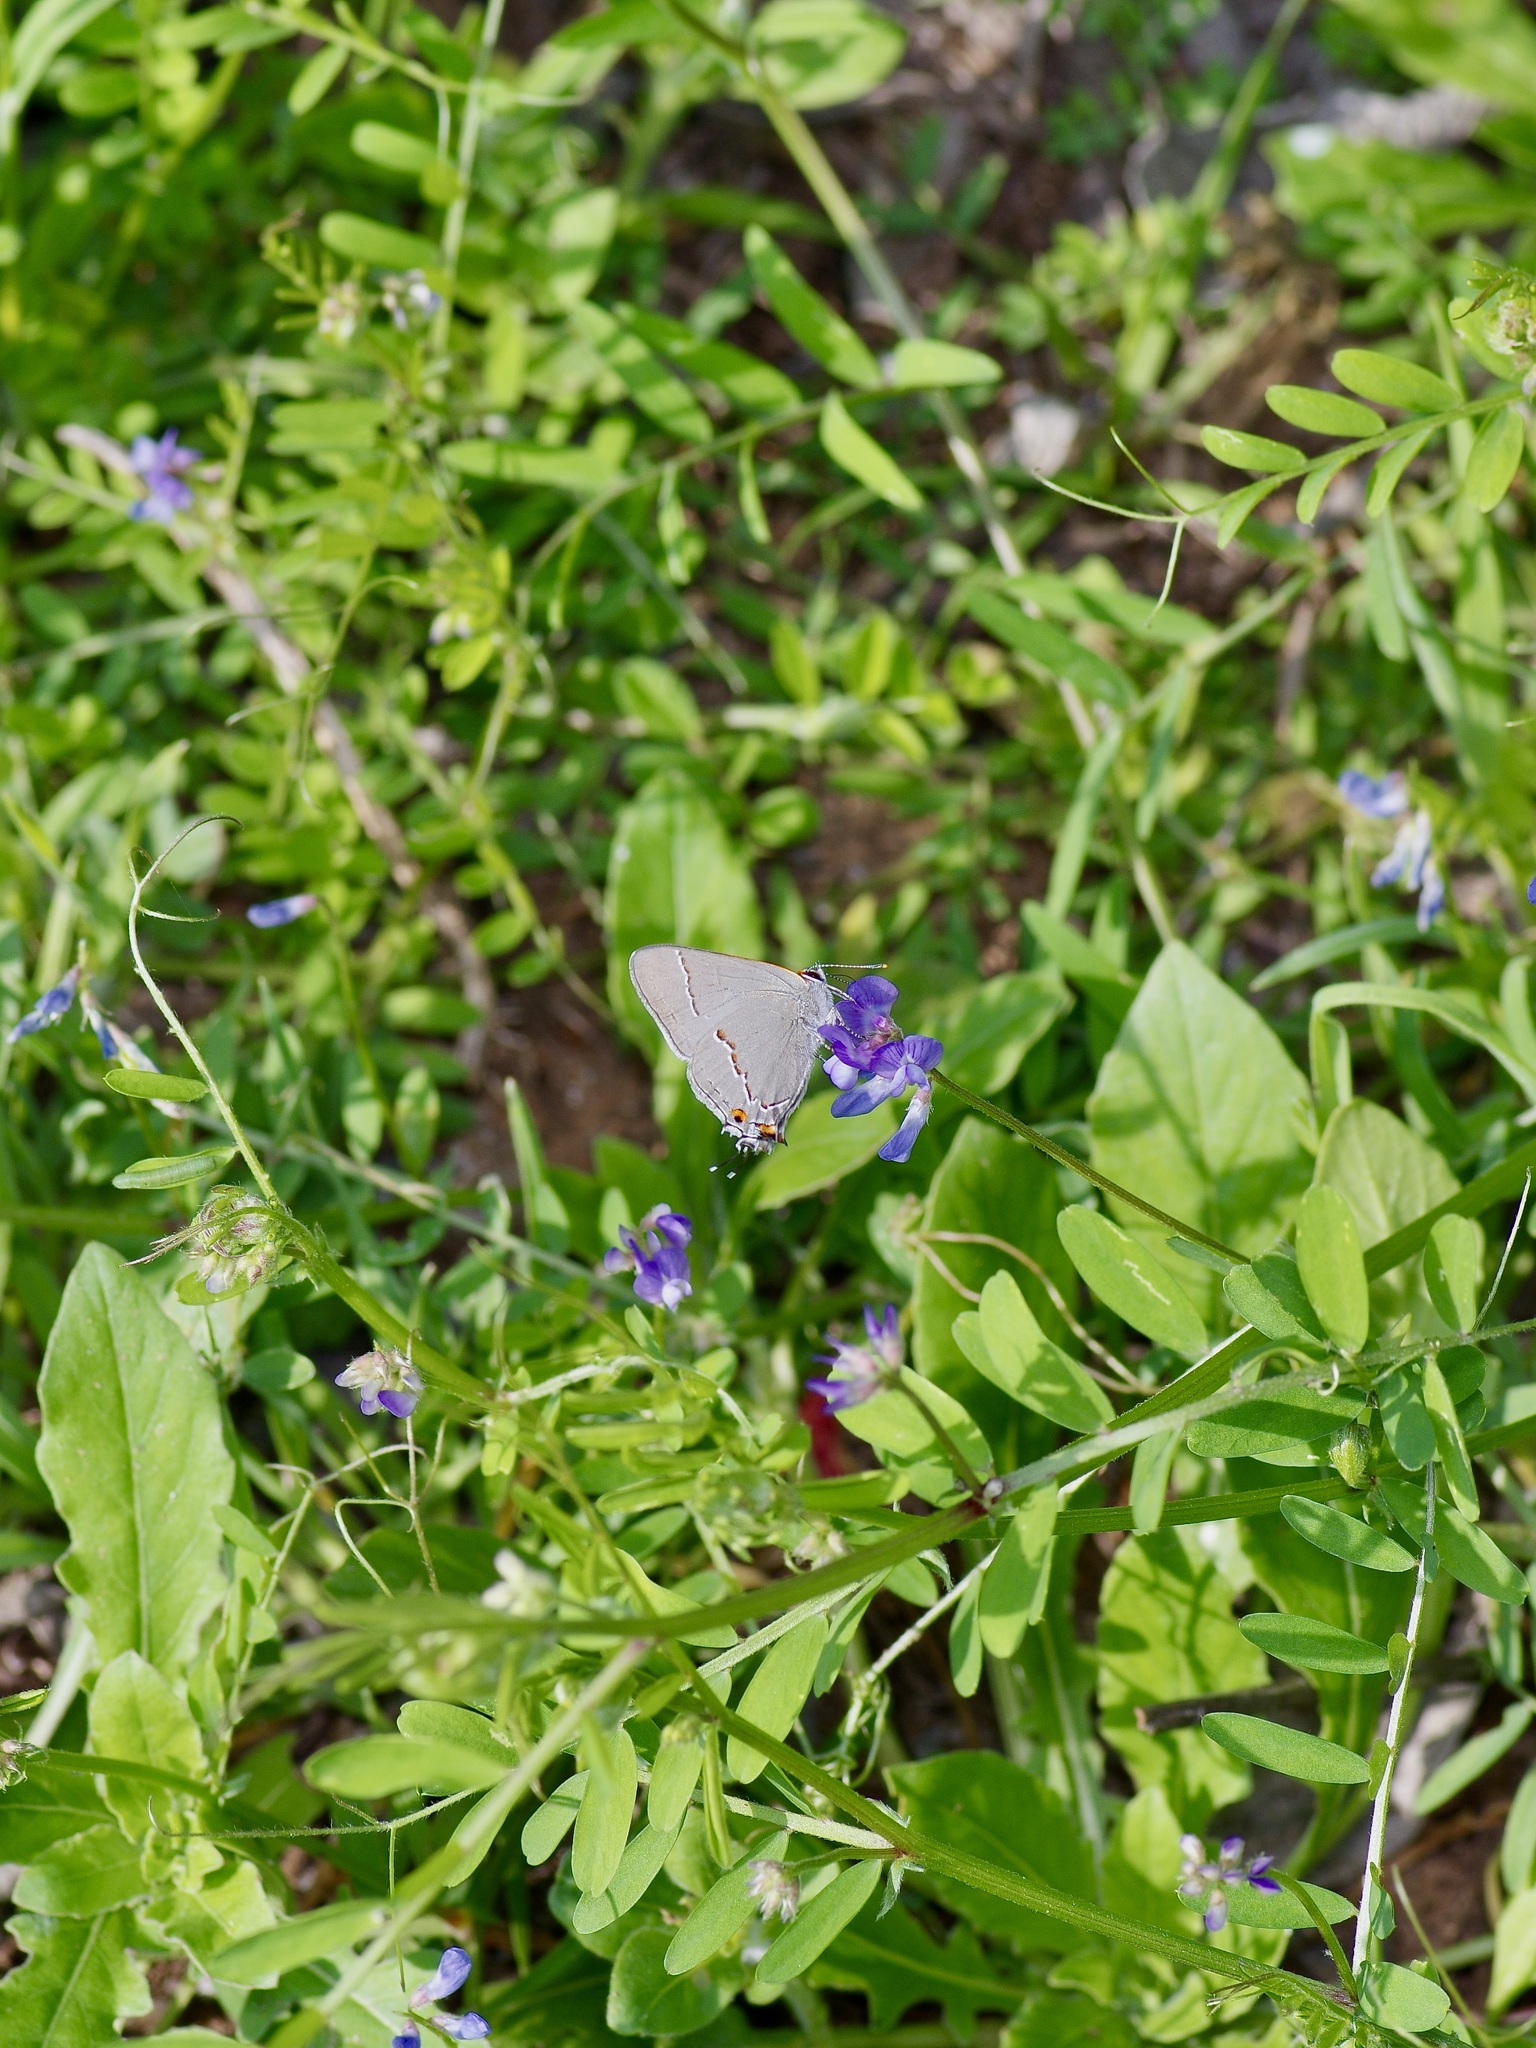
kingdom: Animalia
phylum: Arthropoda
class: Insecta
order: Lepidoptera
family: Lycaenidae
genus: Strymon
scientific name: Strymon melinus
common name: Gray hairstreak
